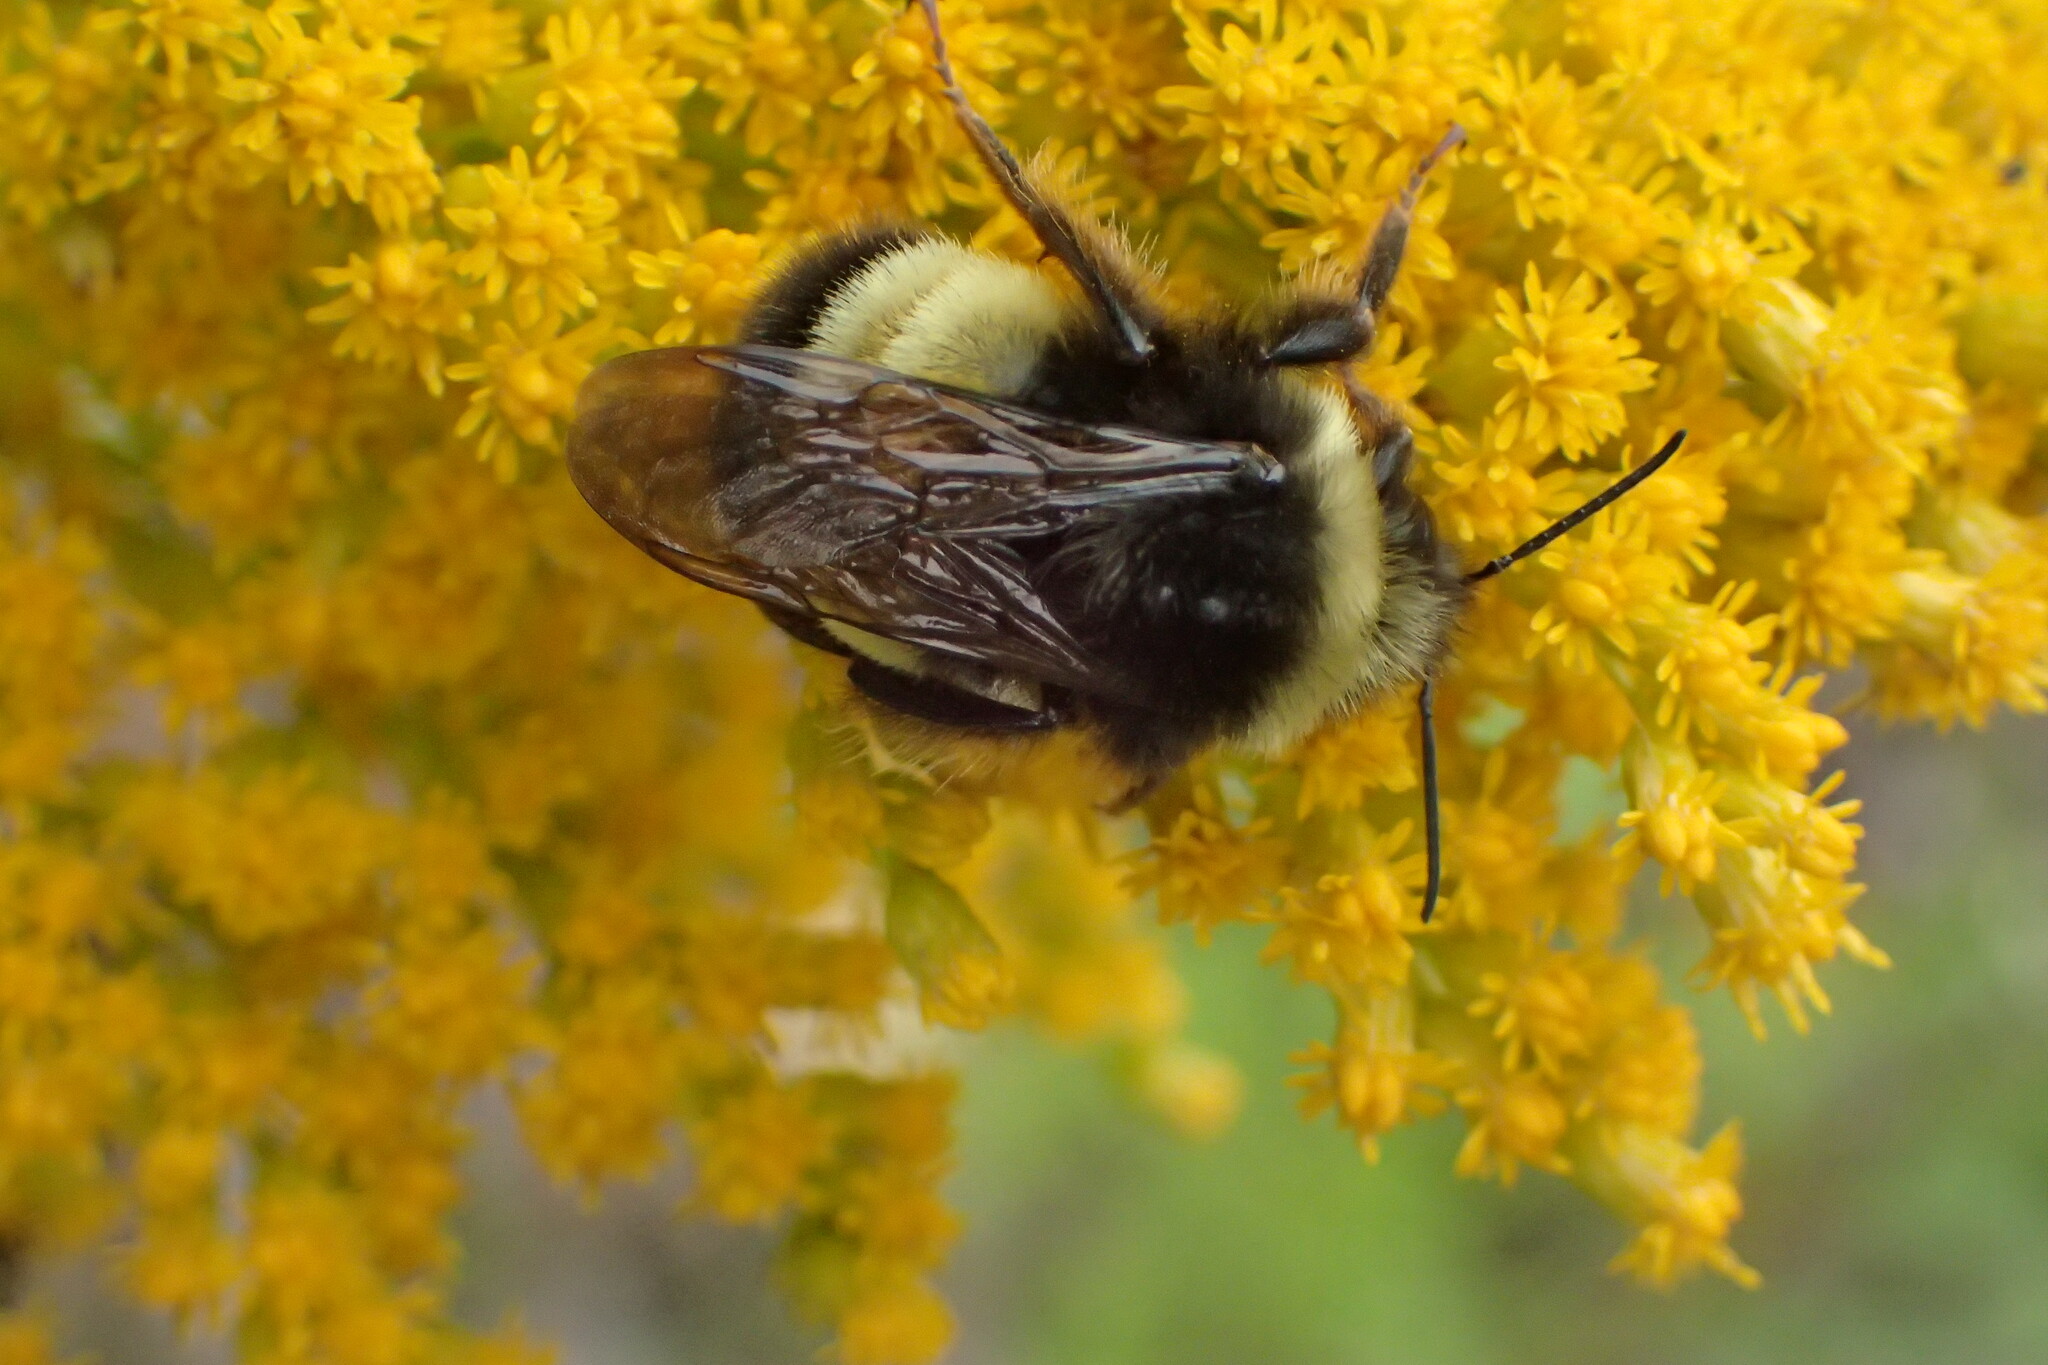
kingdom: Animalia
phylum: Arthropoda
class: Insecta
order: Hymenoptera
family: Apidae
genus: Bombus
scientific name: Bombus terricola
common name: Yellow-banded bumble bee
